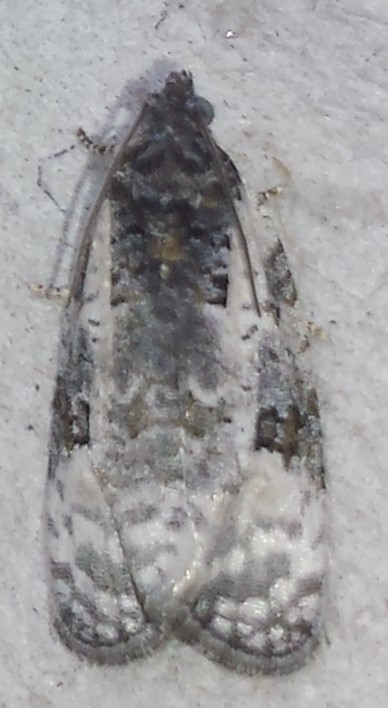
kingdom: Animalia
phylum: Arthropoda
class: Insecta
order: Lepidoptera
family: Tortricidae
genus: Apotomis
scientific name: Apotomis albeolana
